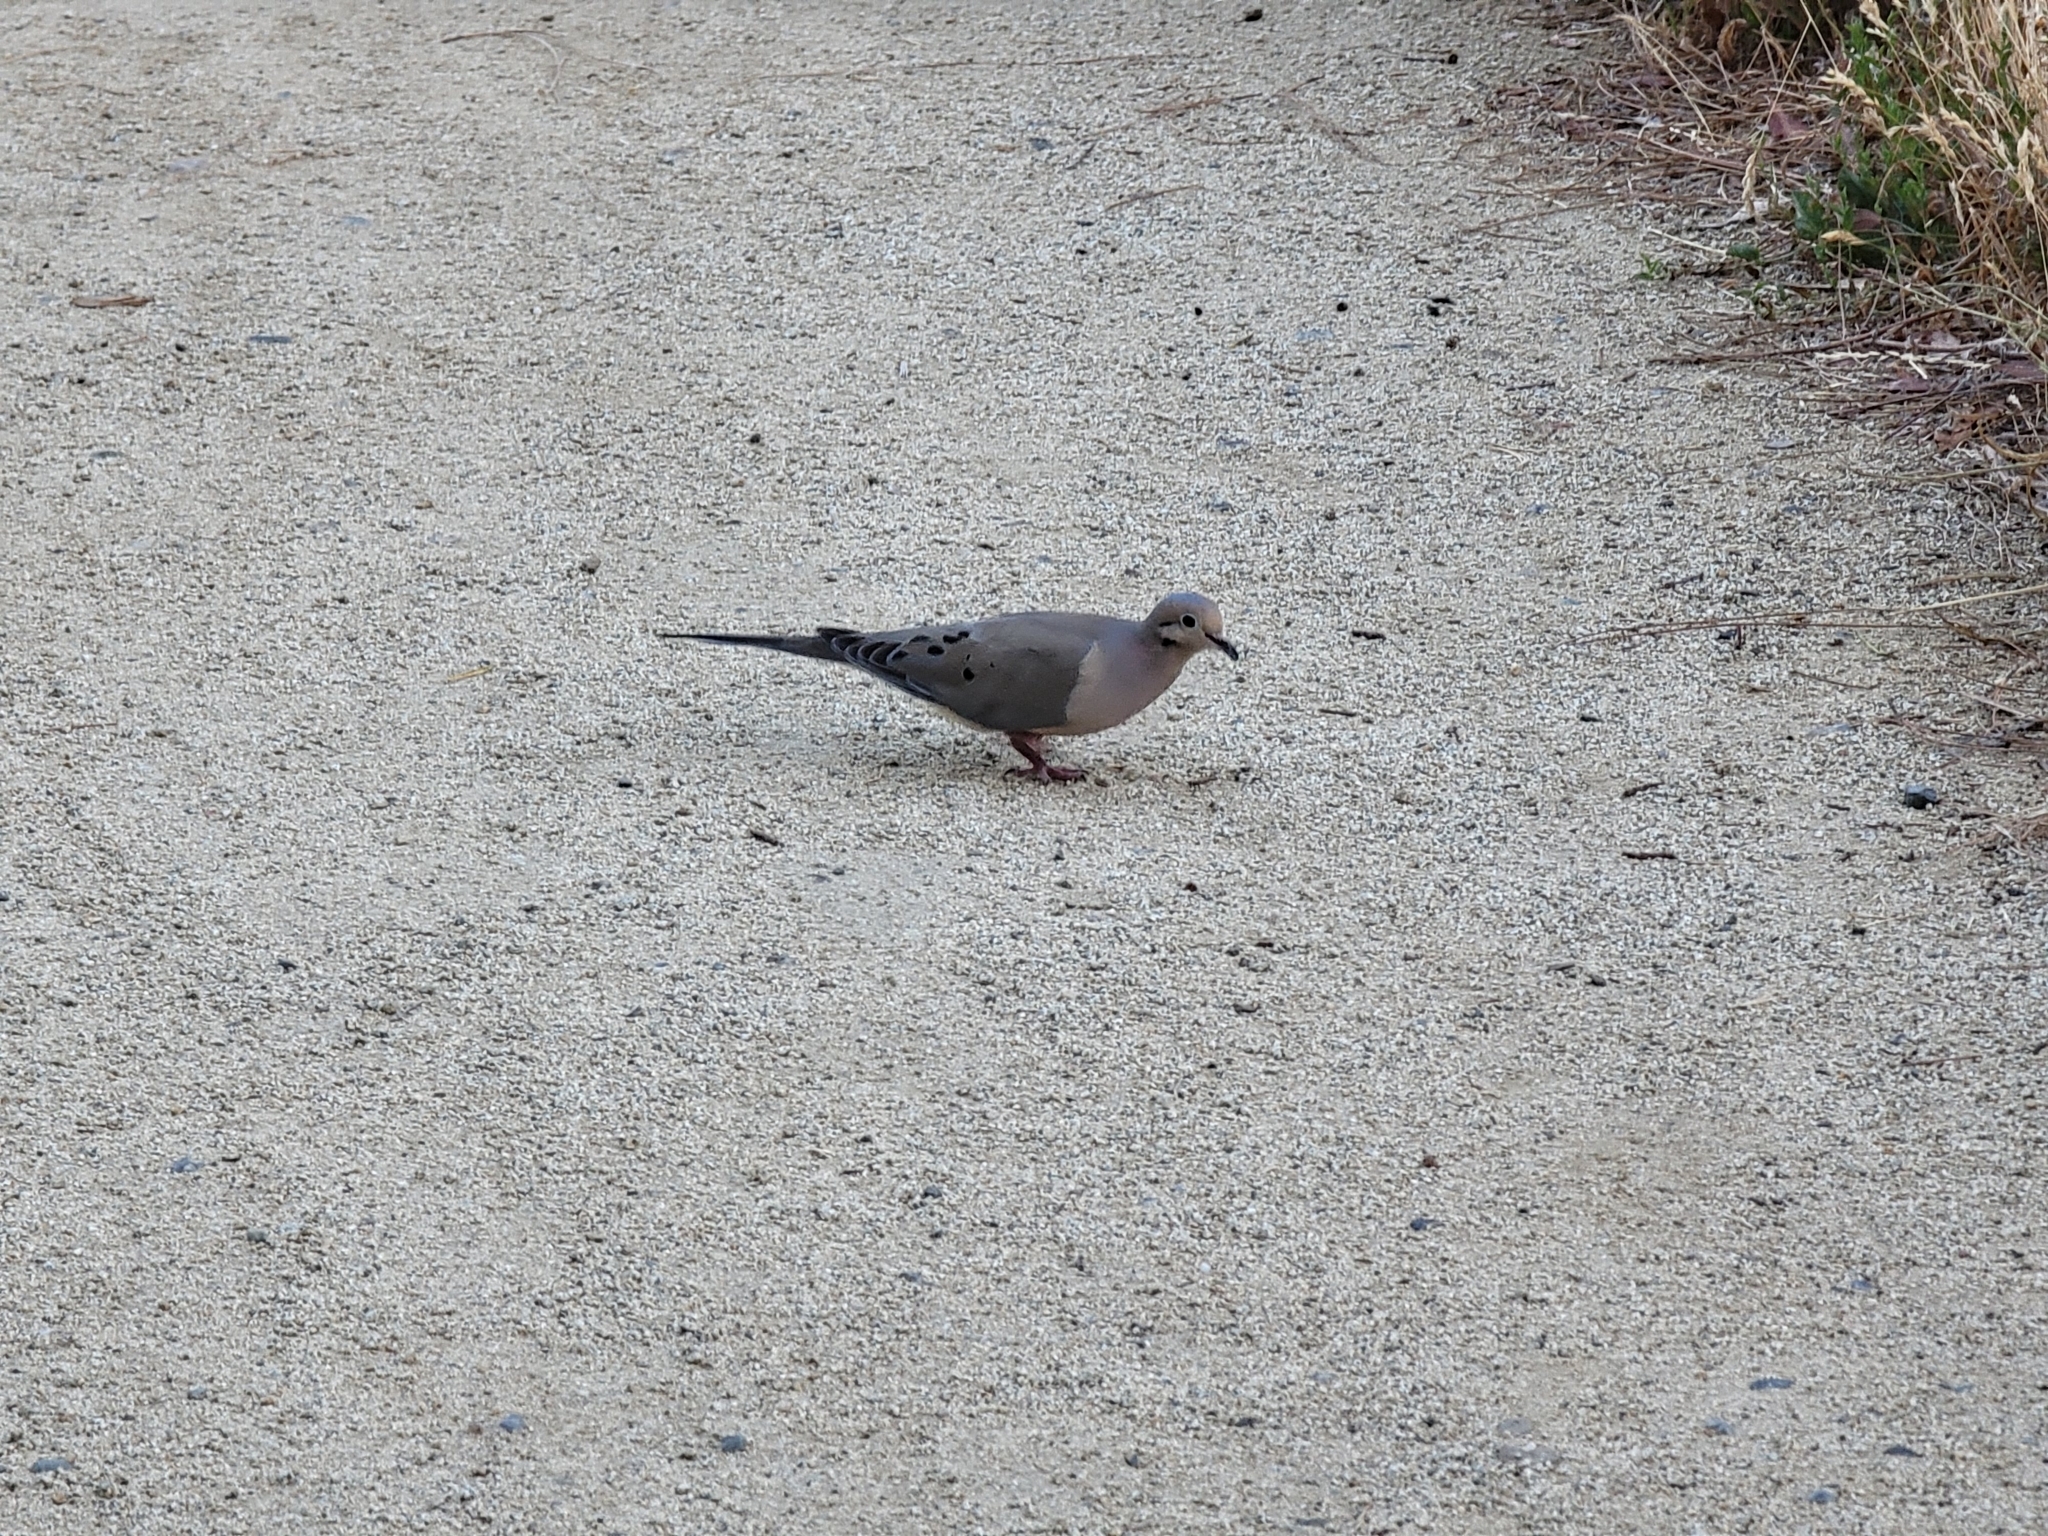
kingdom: Animalia
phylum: Chordata
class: Aves
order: Columbiformes
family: Columbidae
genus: Zenaida
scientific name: Zenaida macroura
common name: Mourning dove
